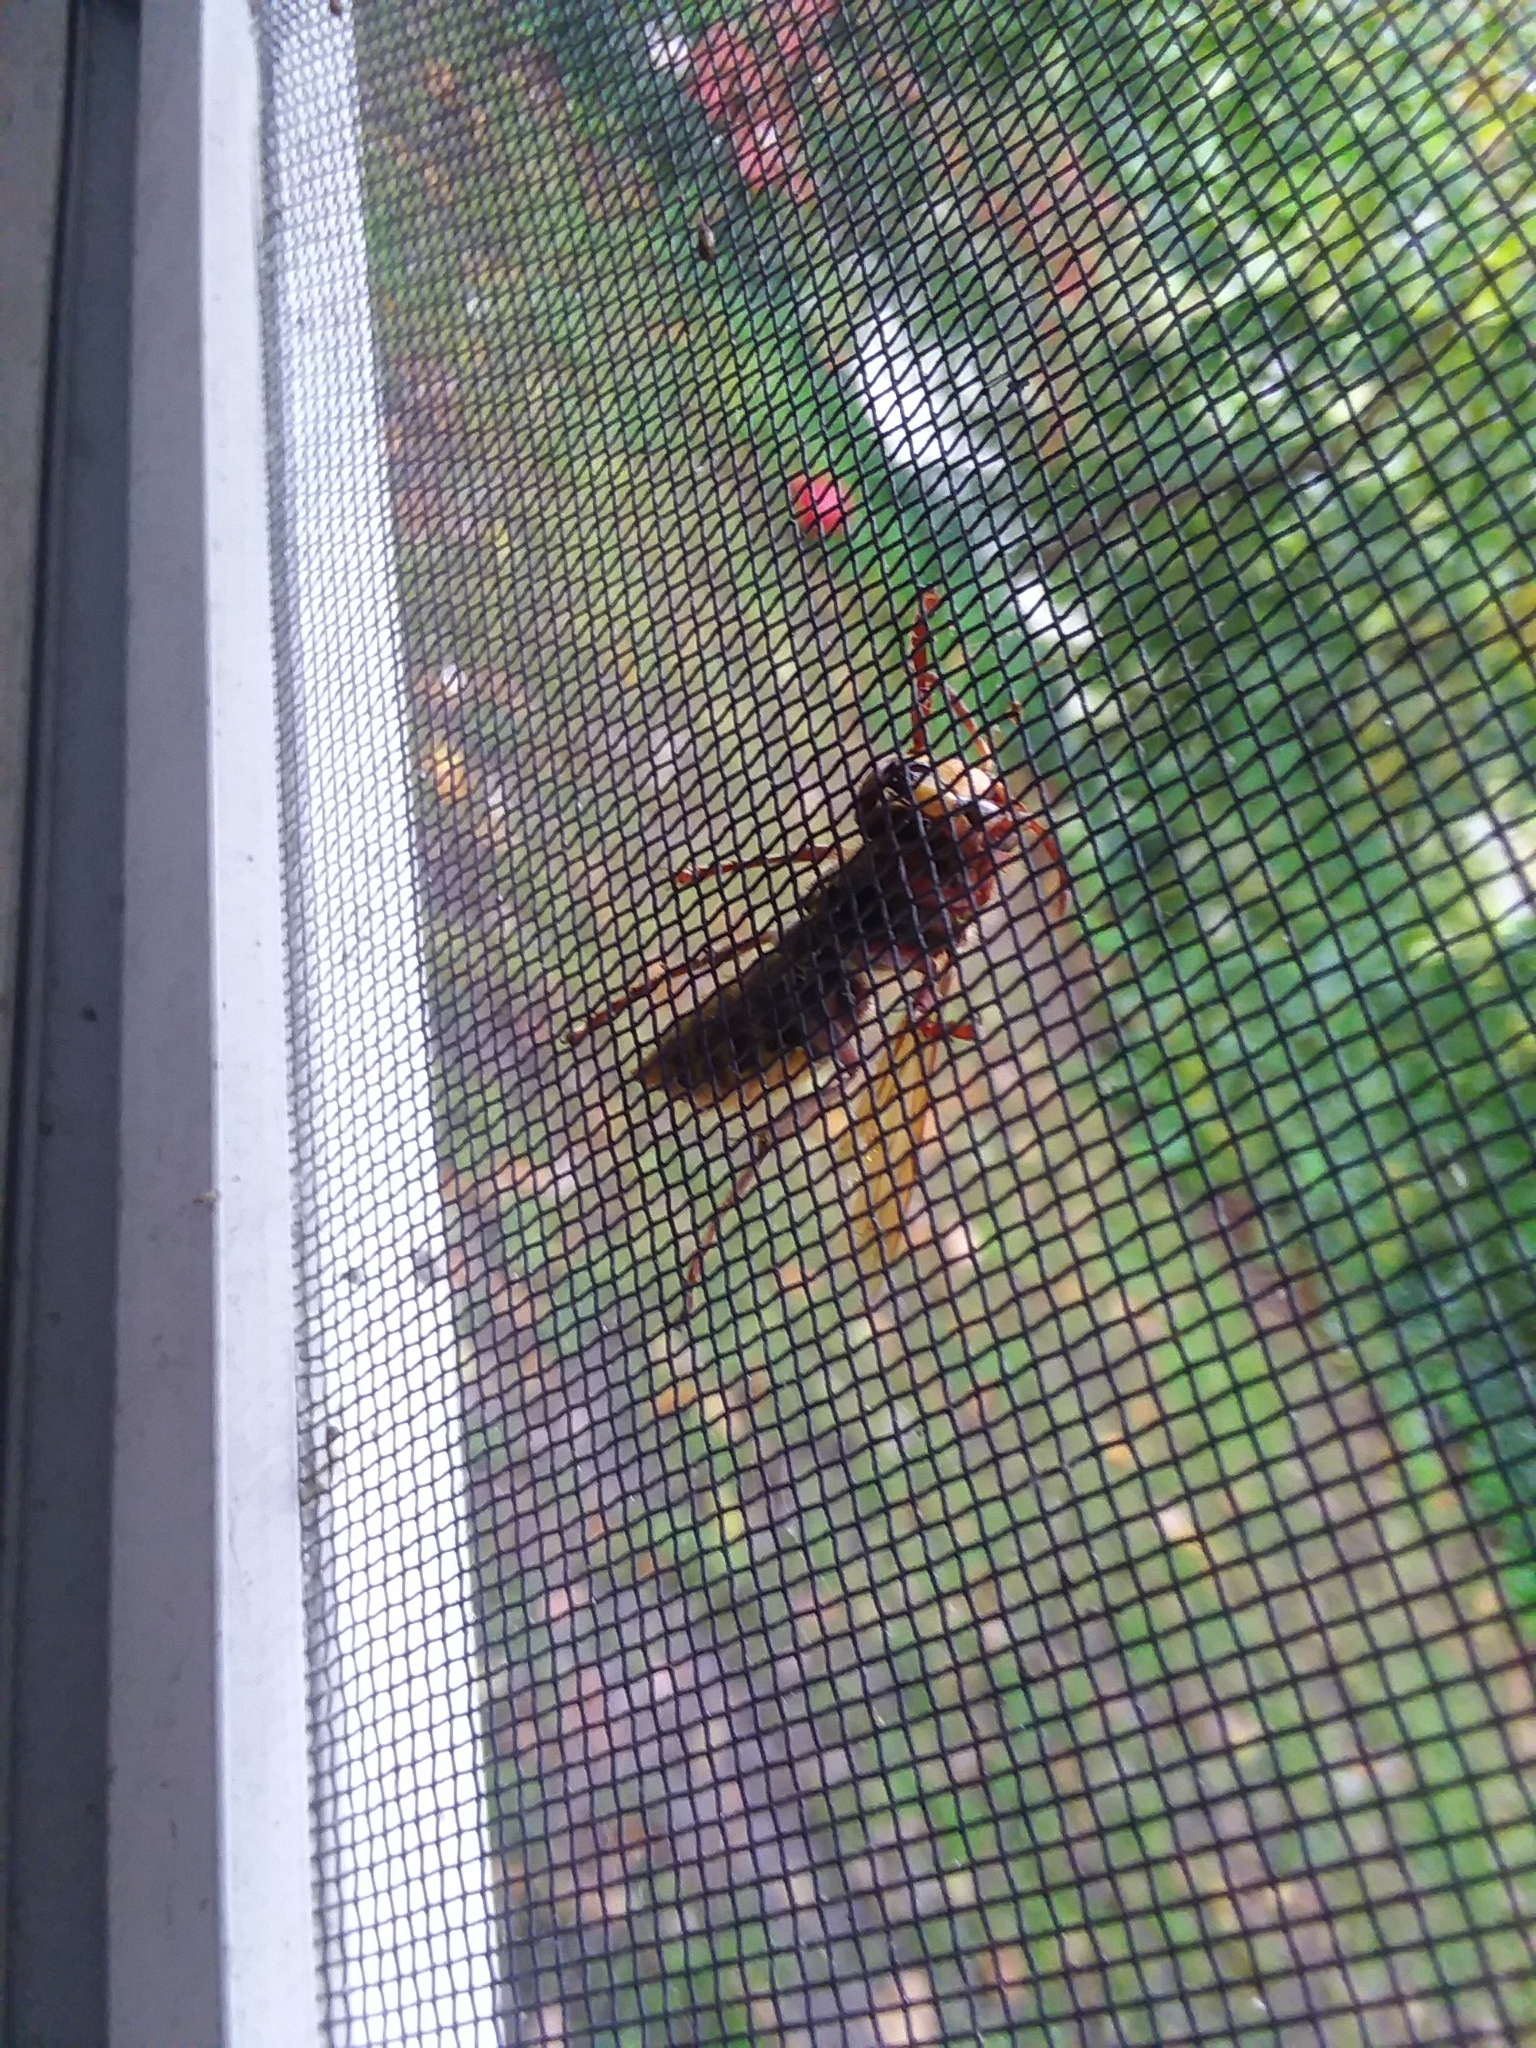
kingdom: Animalia
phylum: Arthropoda
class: Insecta
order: Hymenoptera
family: Vespidae
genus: Vespa
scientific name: Vespa crabro
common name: Hornet
